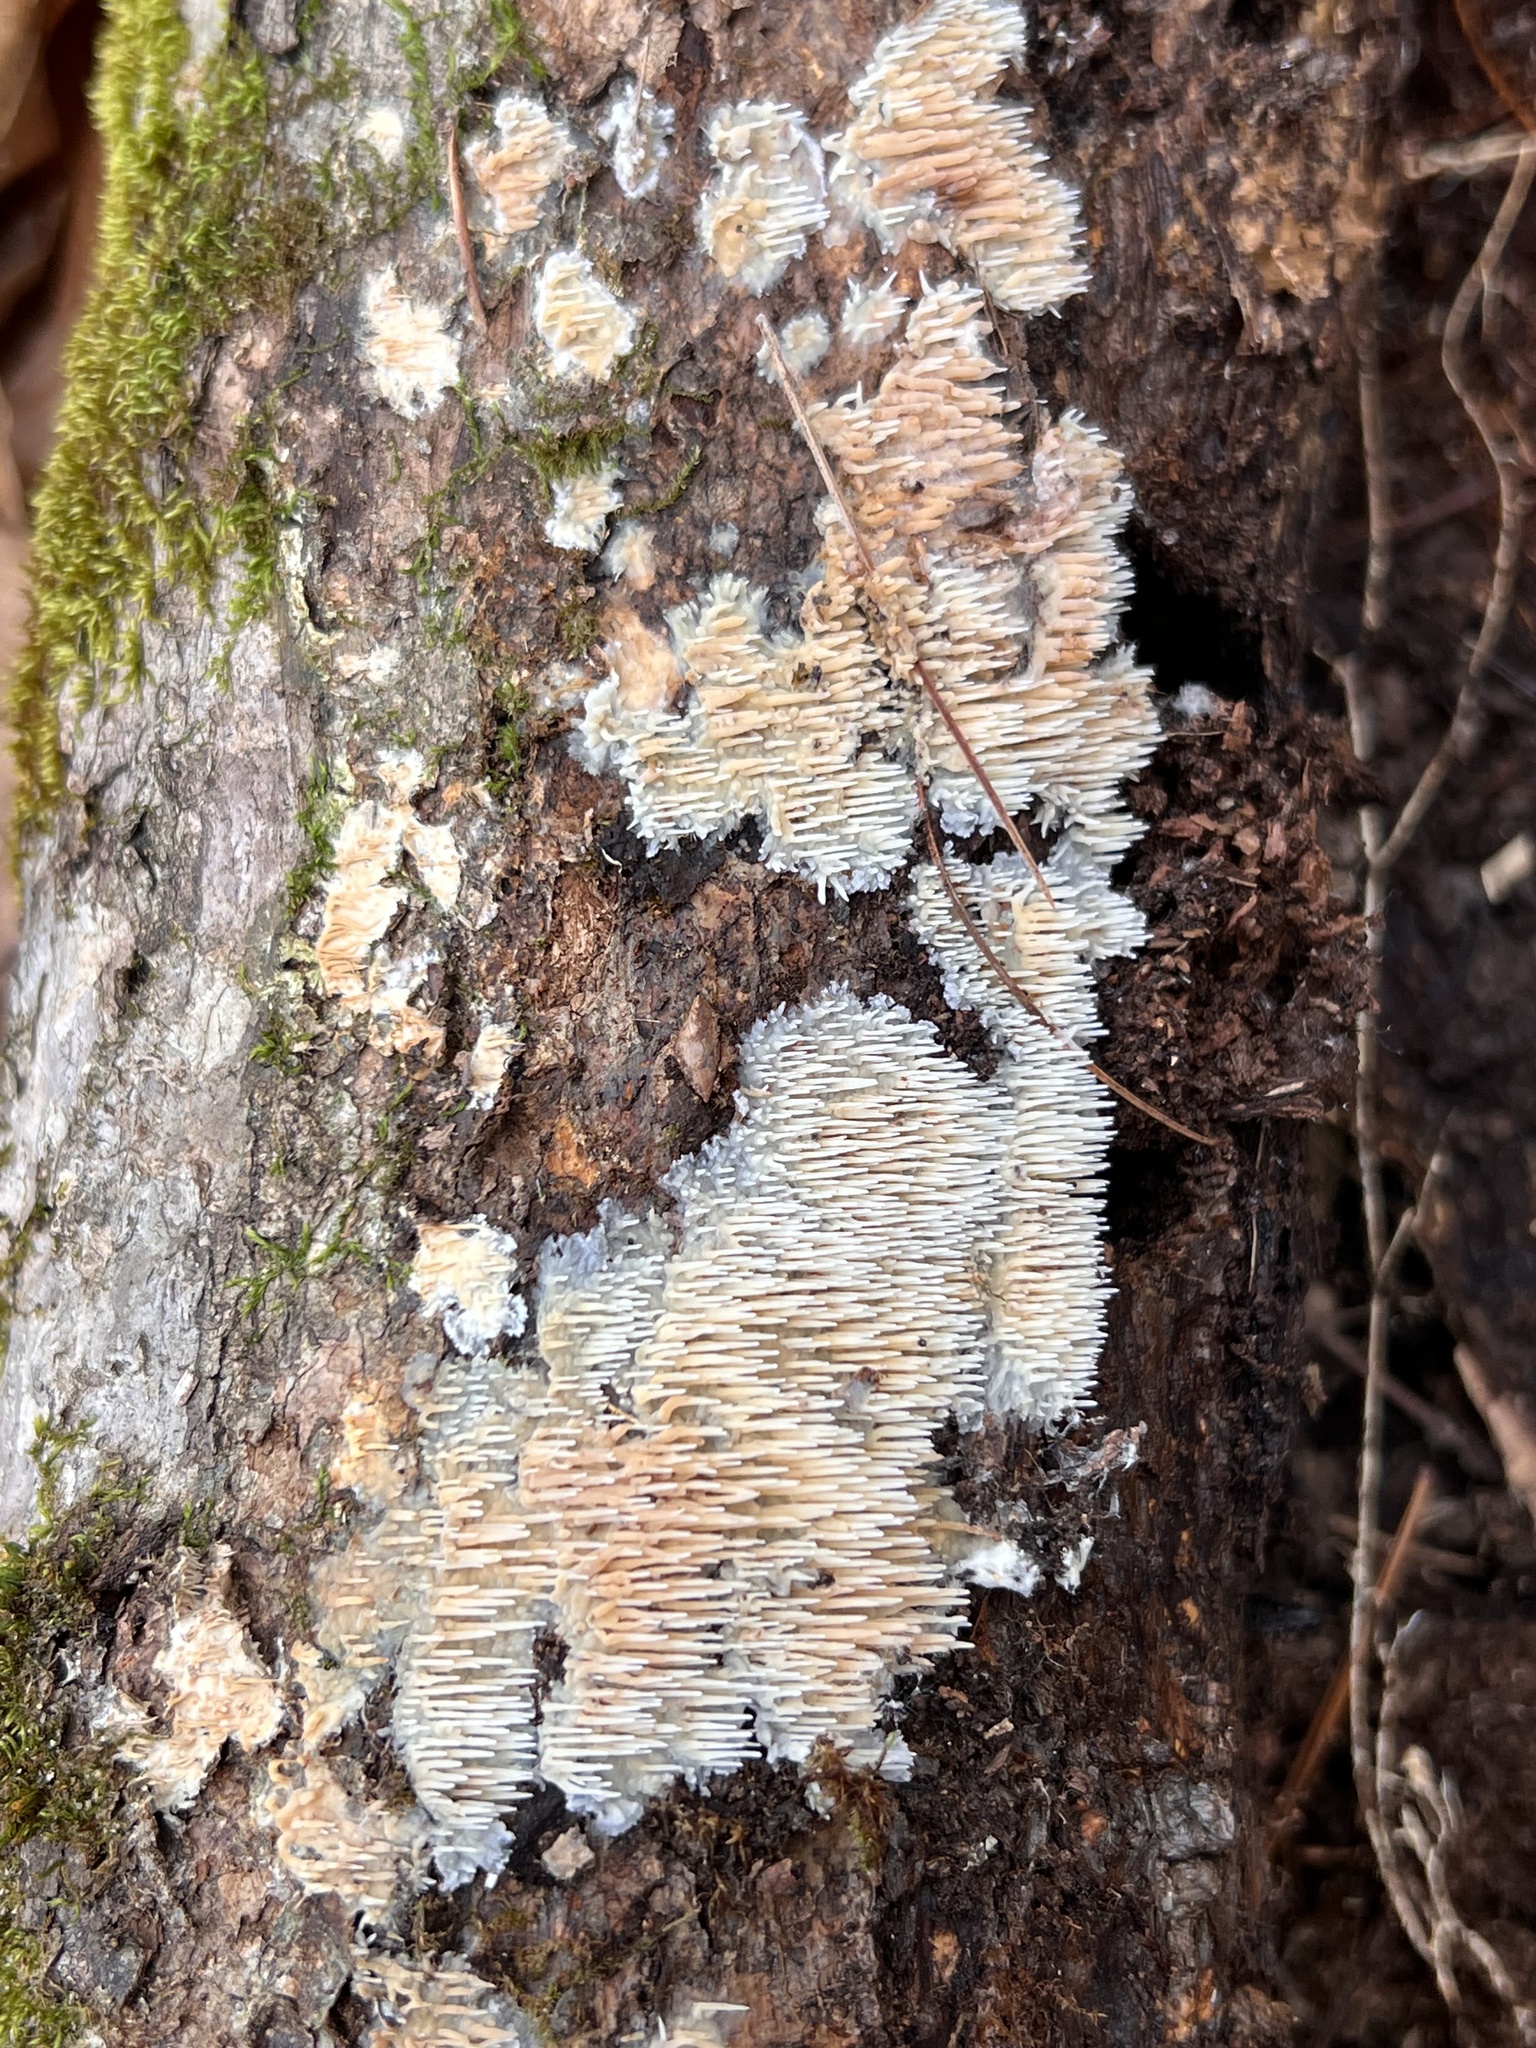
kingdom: Fungi
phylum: Basidiomycota
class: Agaricomycetes
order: Agaricales
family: Radulomycetaceae
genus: Radulomyces
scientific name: Radulomyces copelandii
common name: Asian beauty
